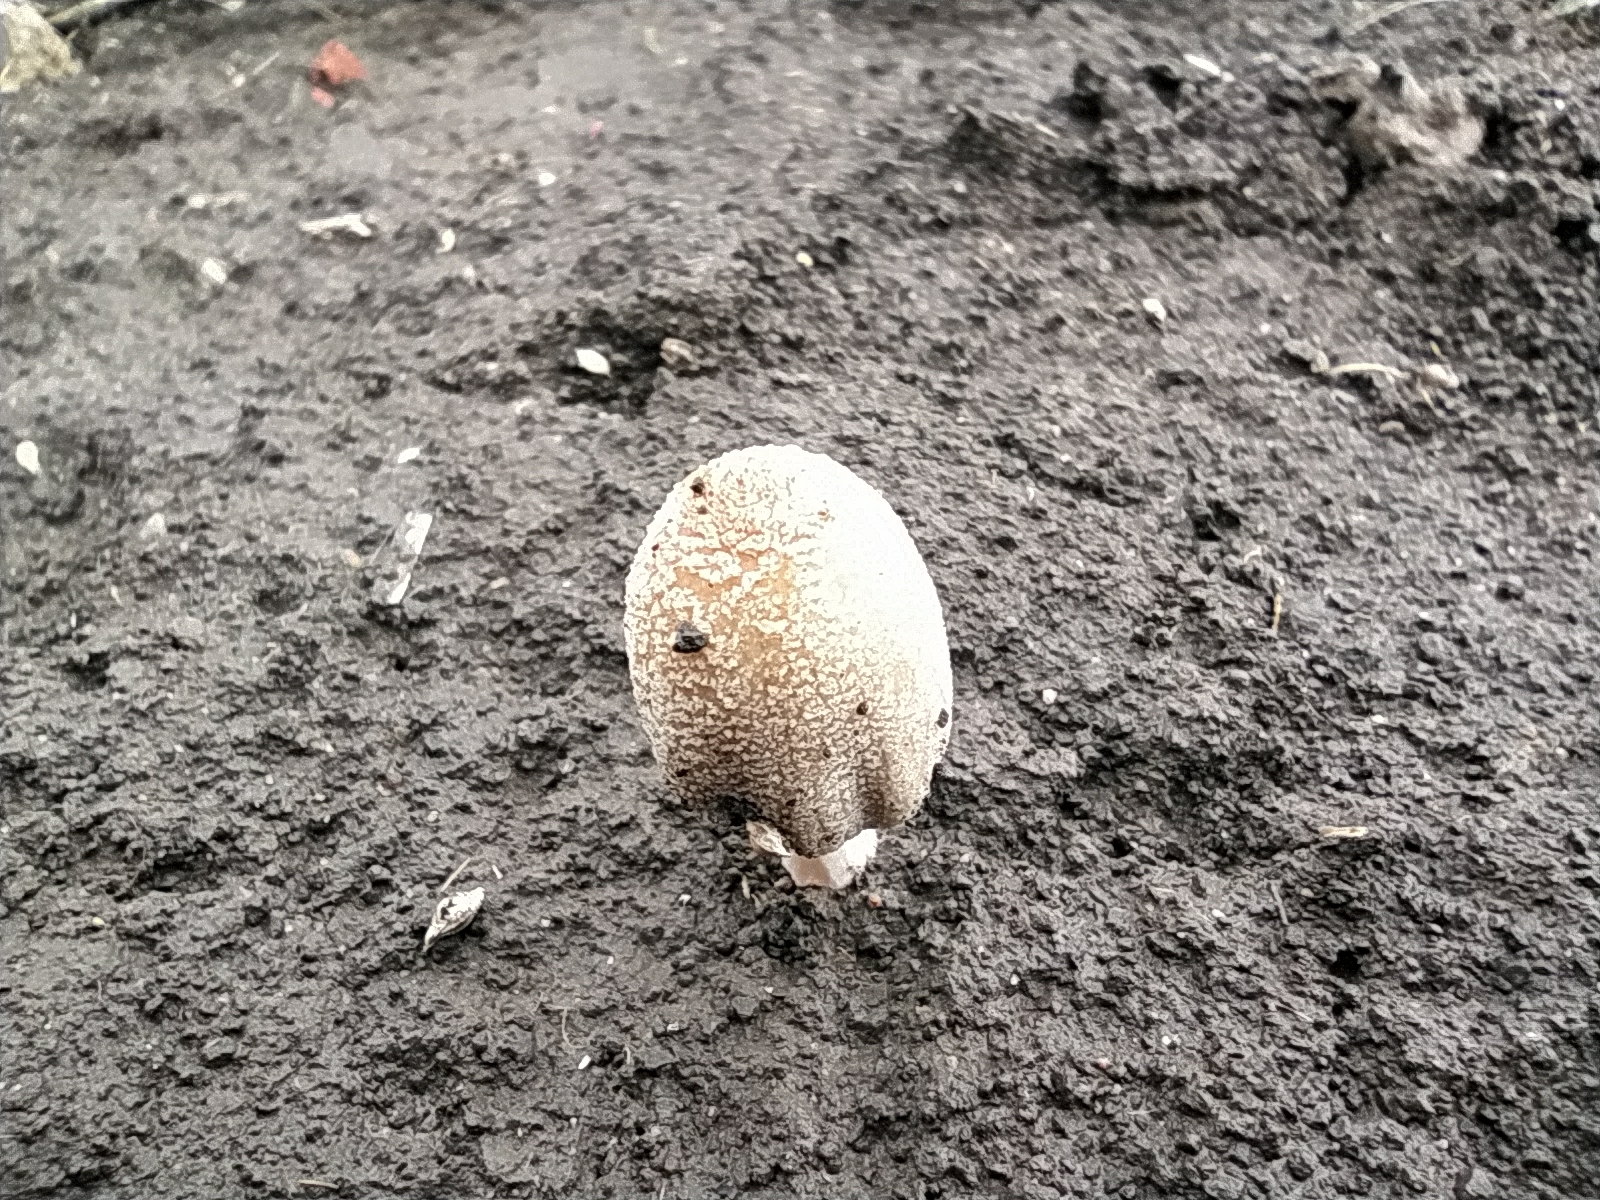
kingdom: Fungi
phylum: Basidiomycota
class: Agaricomycetes
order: Agaricales
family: Psathyrellaceae
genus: Coprinellus
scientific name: Coprinellus micaceus
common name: Glistening ink-cap
